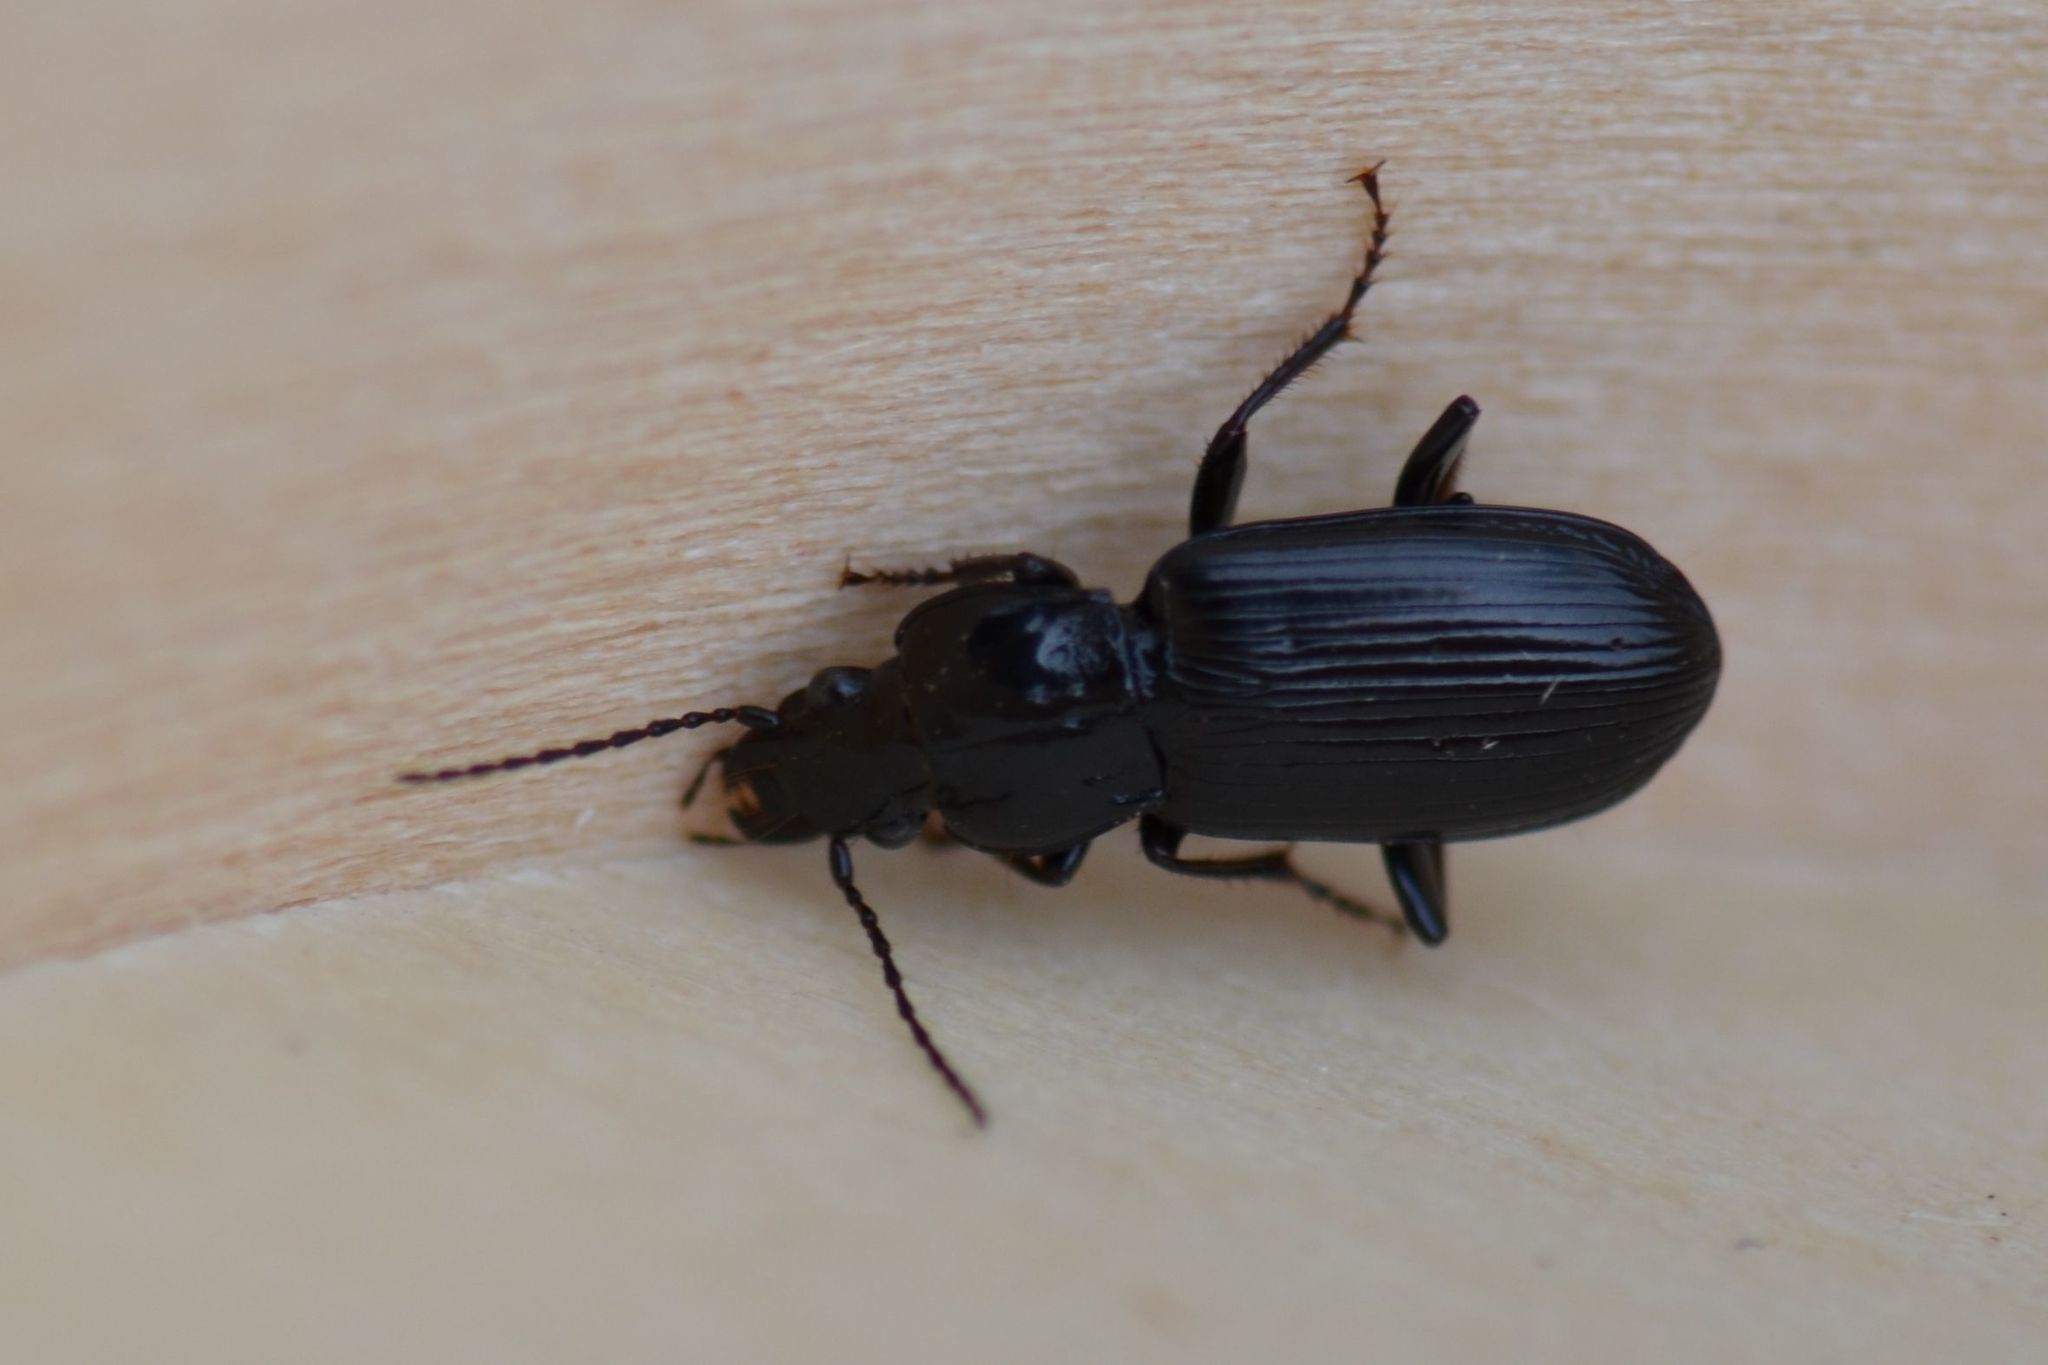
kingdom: Animalia
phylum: Arthropoda
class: Insecta
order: Coleoptera
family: Carabidae
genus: Pterostichus
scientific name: Pterostichus anthracinus
